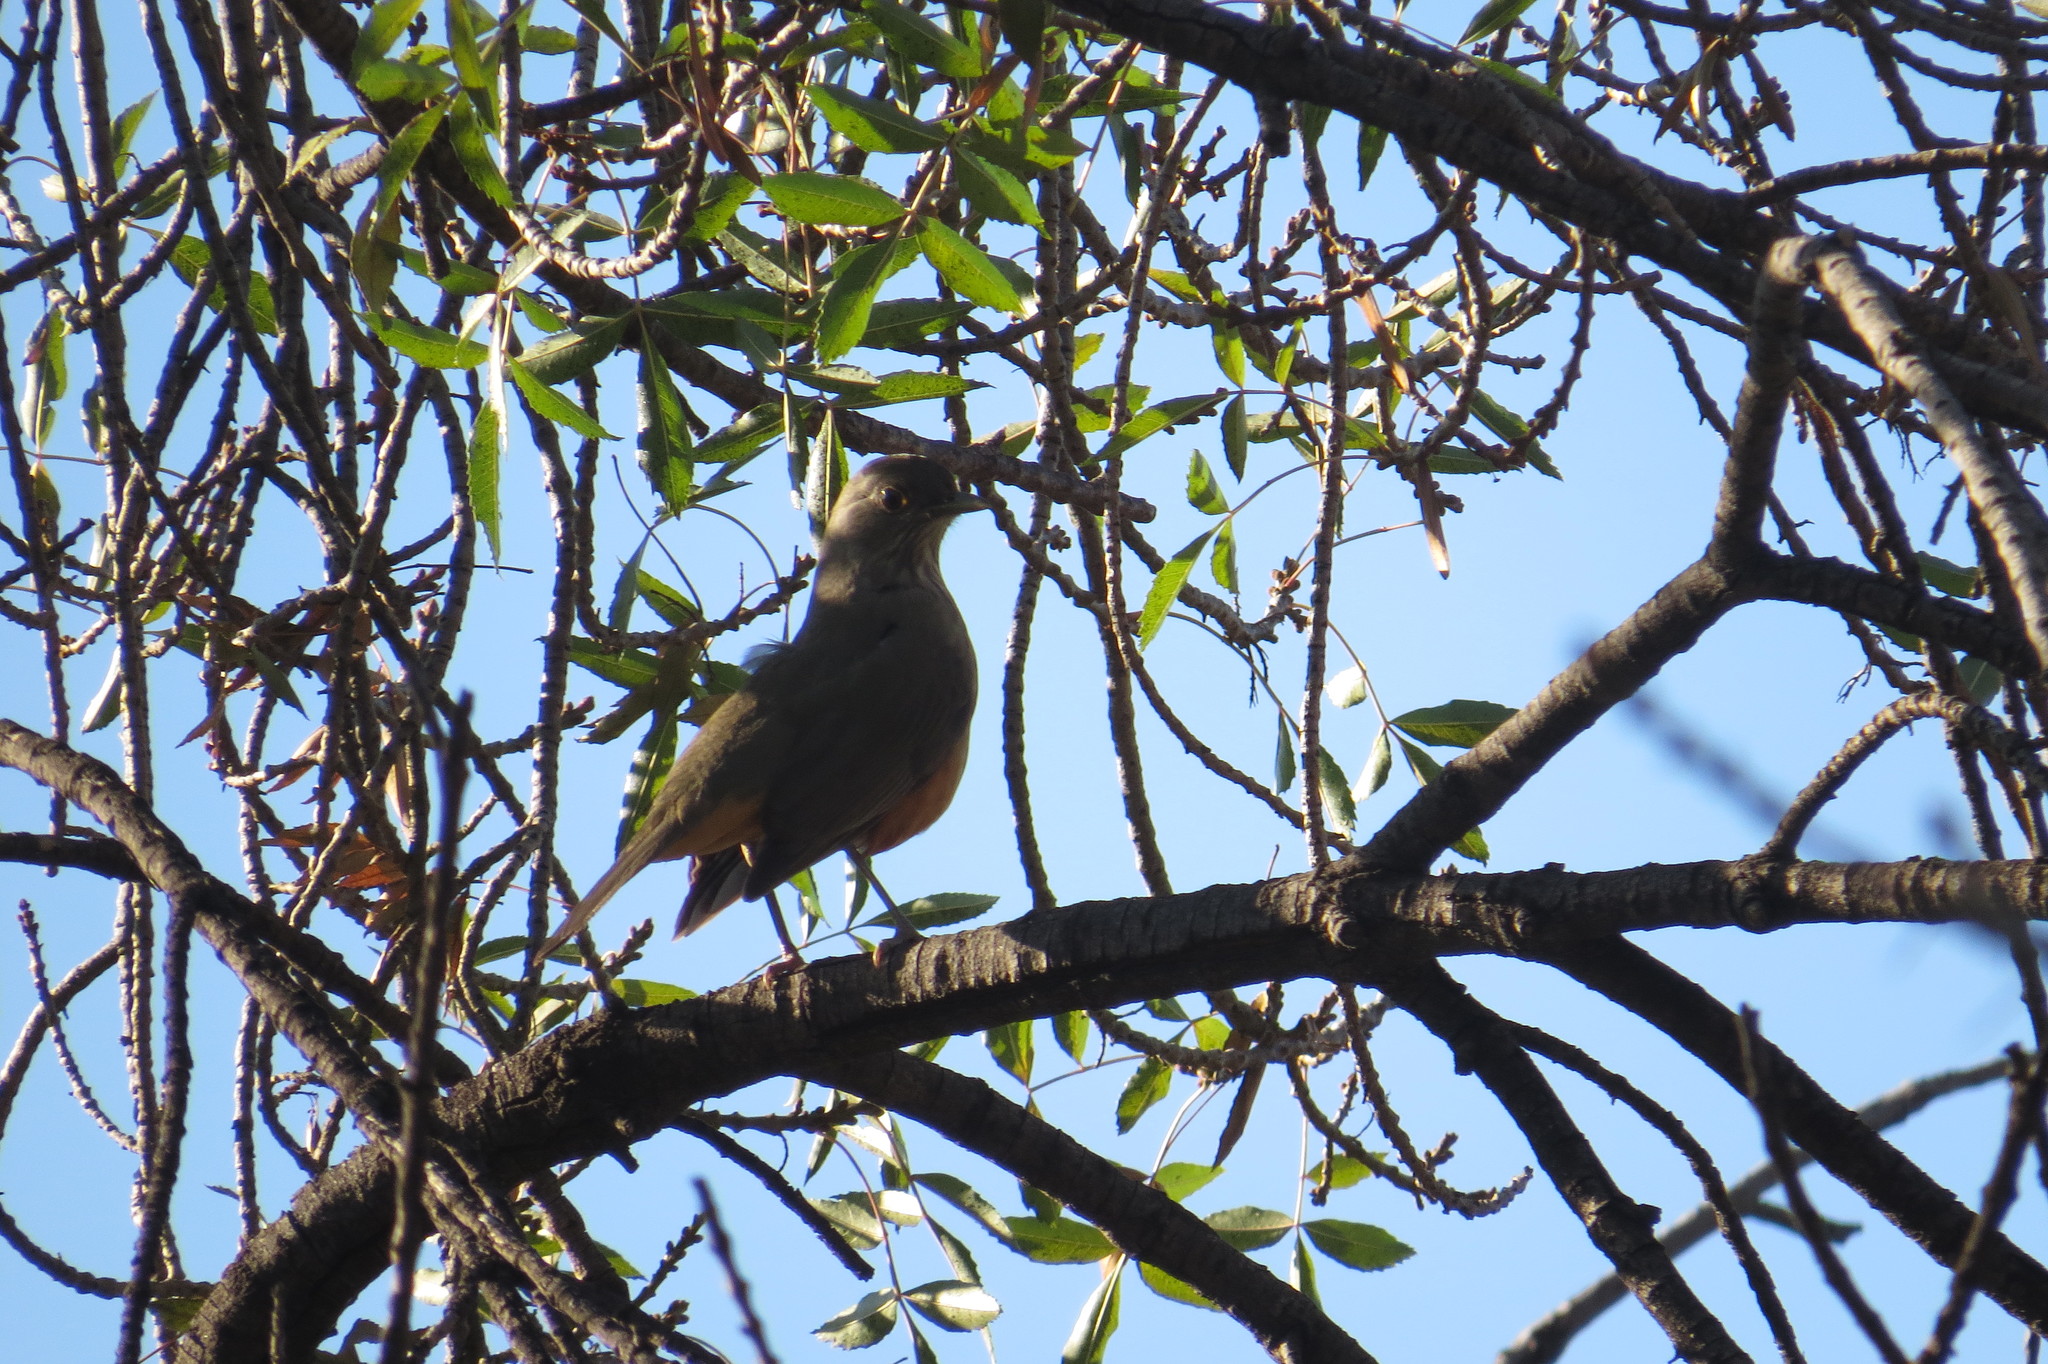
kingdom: Animalia
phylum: Chordata
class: Aves
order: Passeriformes
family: Turdidae
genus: Turdus
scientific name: Turdus rufiventris
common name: Rufous-bellied thrush
